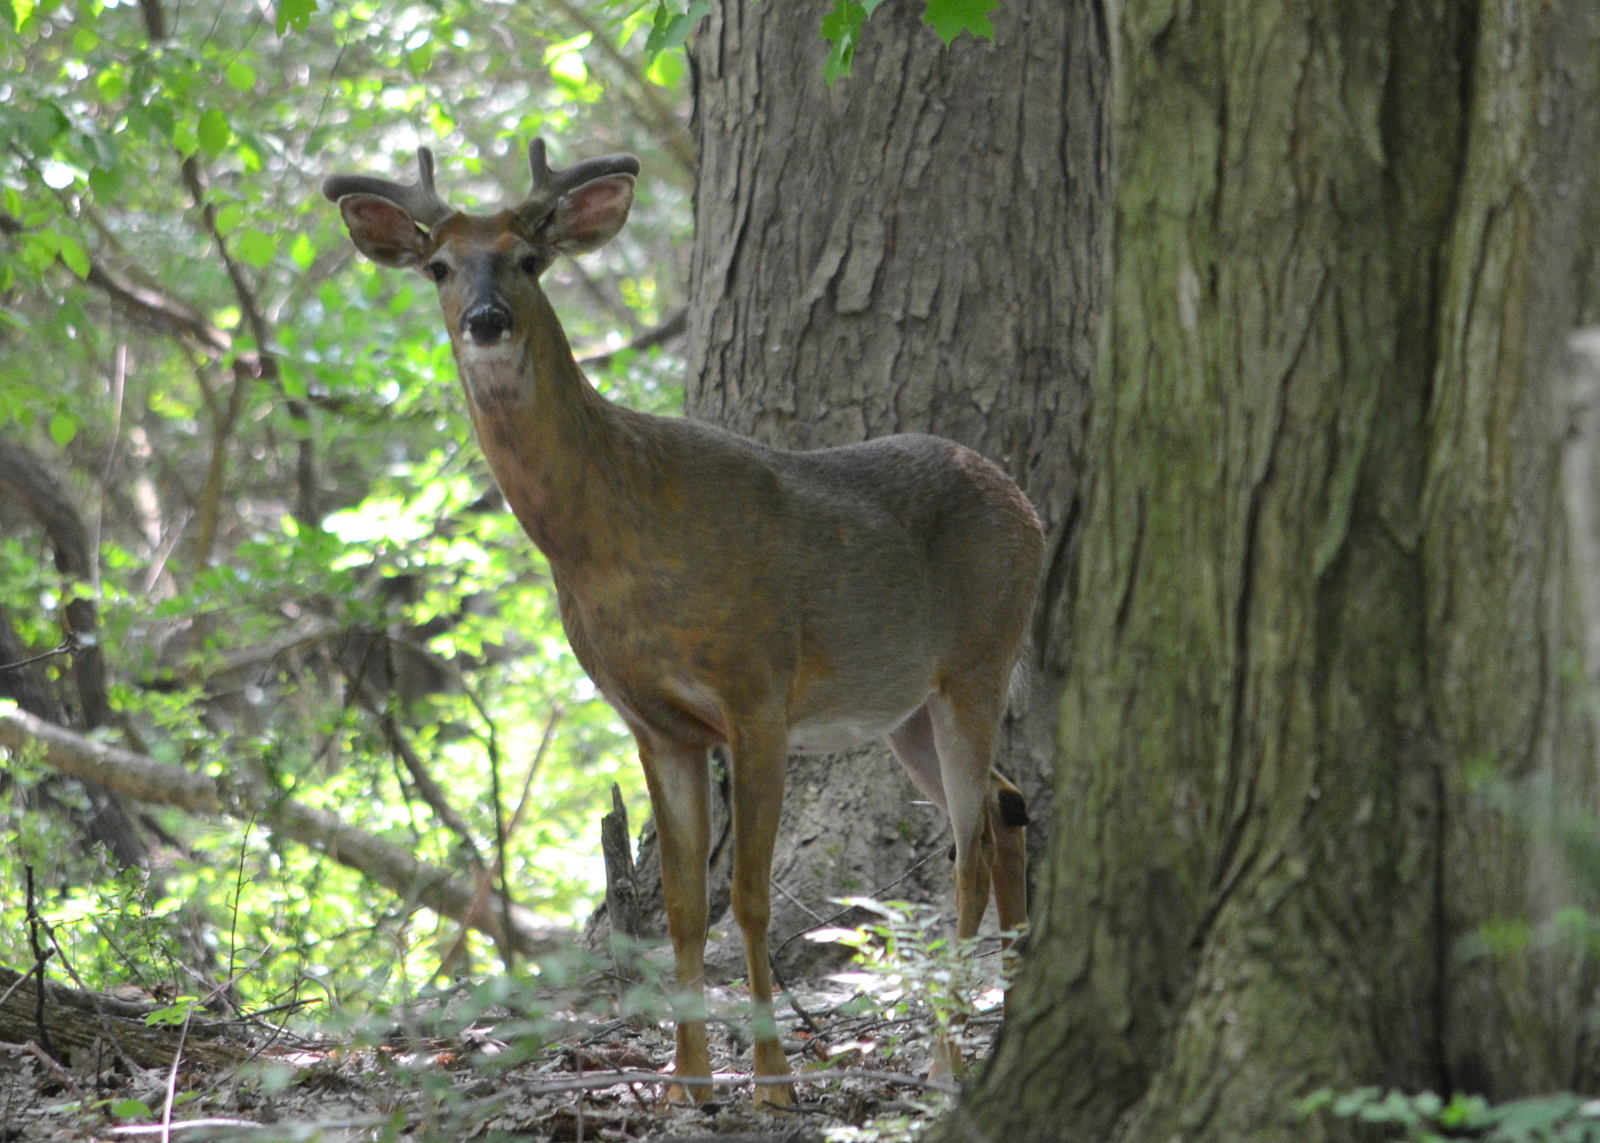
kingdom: Animalia
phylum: Chordata
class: Mammalia
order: Artiodactyla
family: Cervidae
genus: Odocoileus
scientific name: Odocoileus virginianus
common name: White-tailed deer
